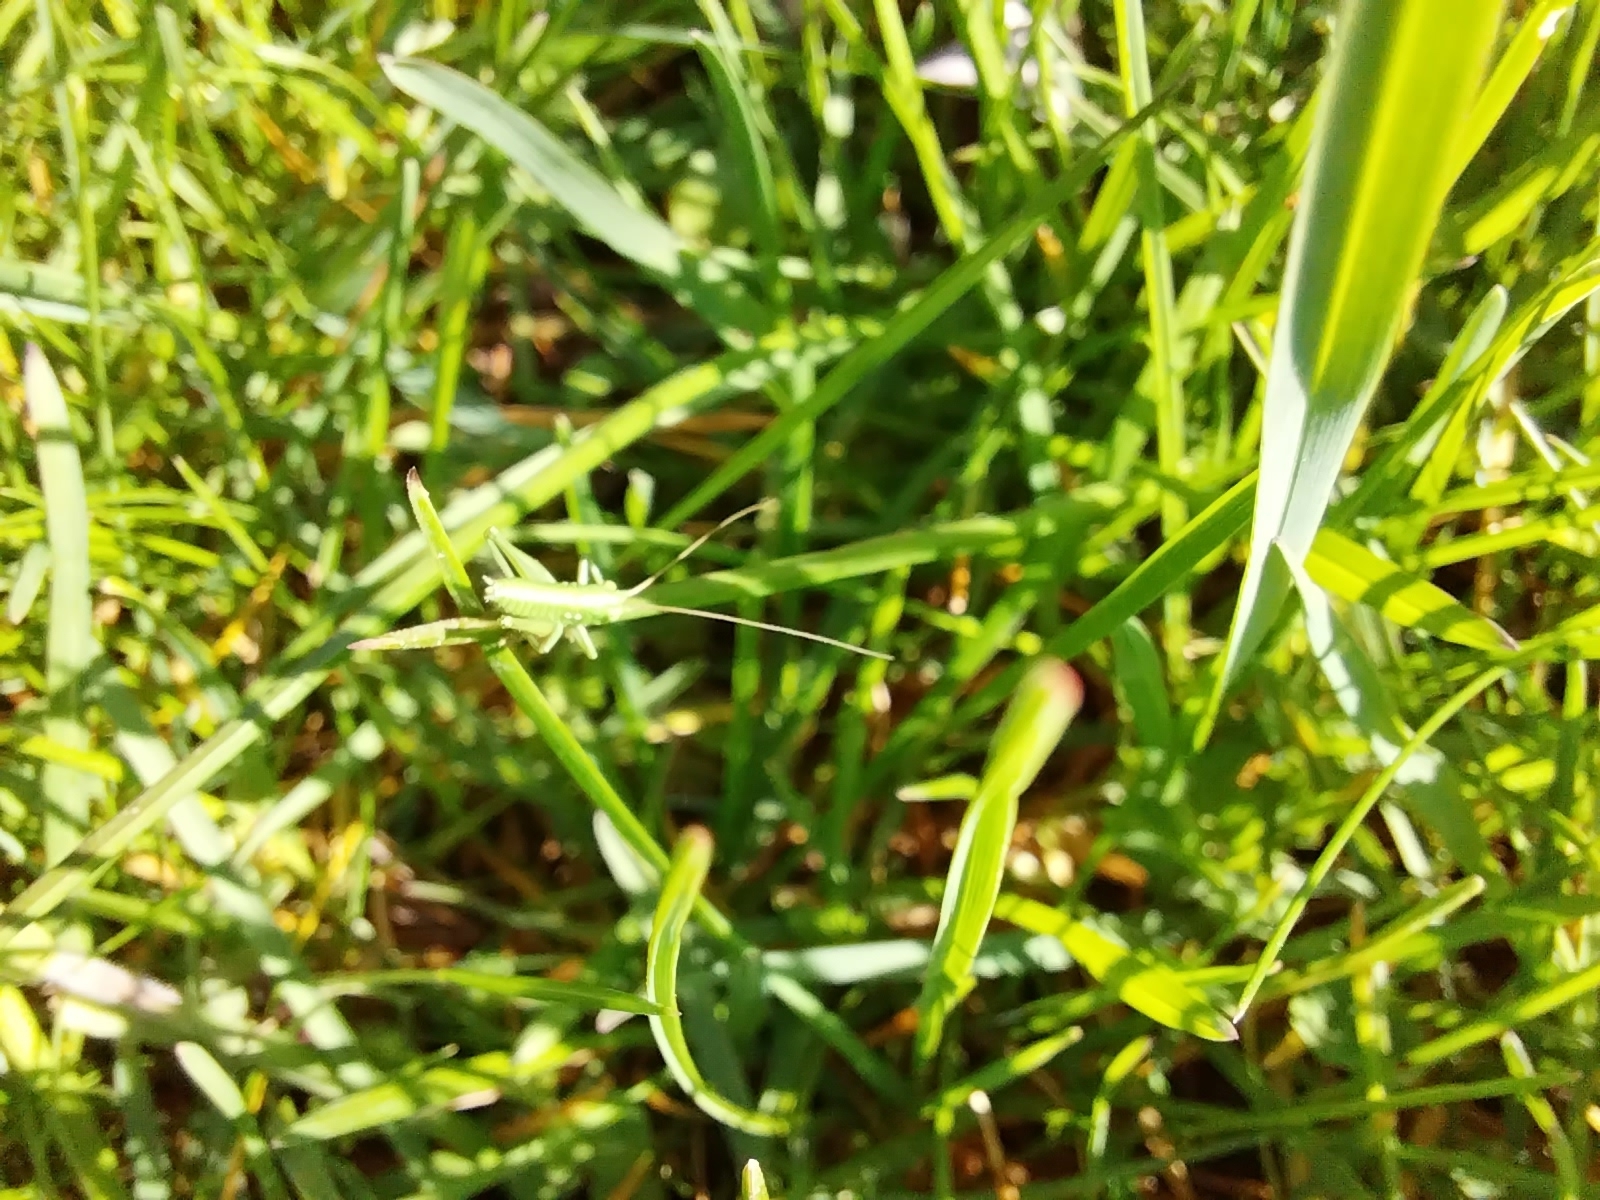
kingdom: Animalia
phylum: Arthropoda
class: Insecta
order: Orthoptera
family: Tettigoniidae
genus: Tettigonia
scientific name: Tettigonia viridissima
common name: Great green bush-cricket
